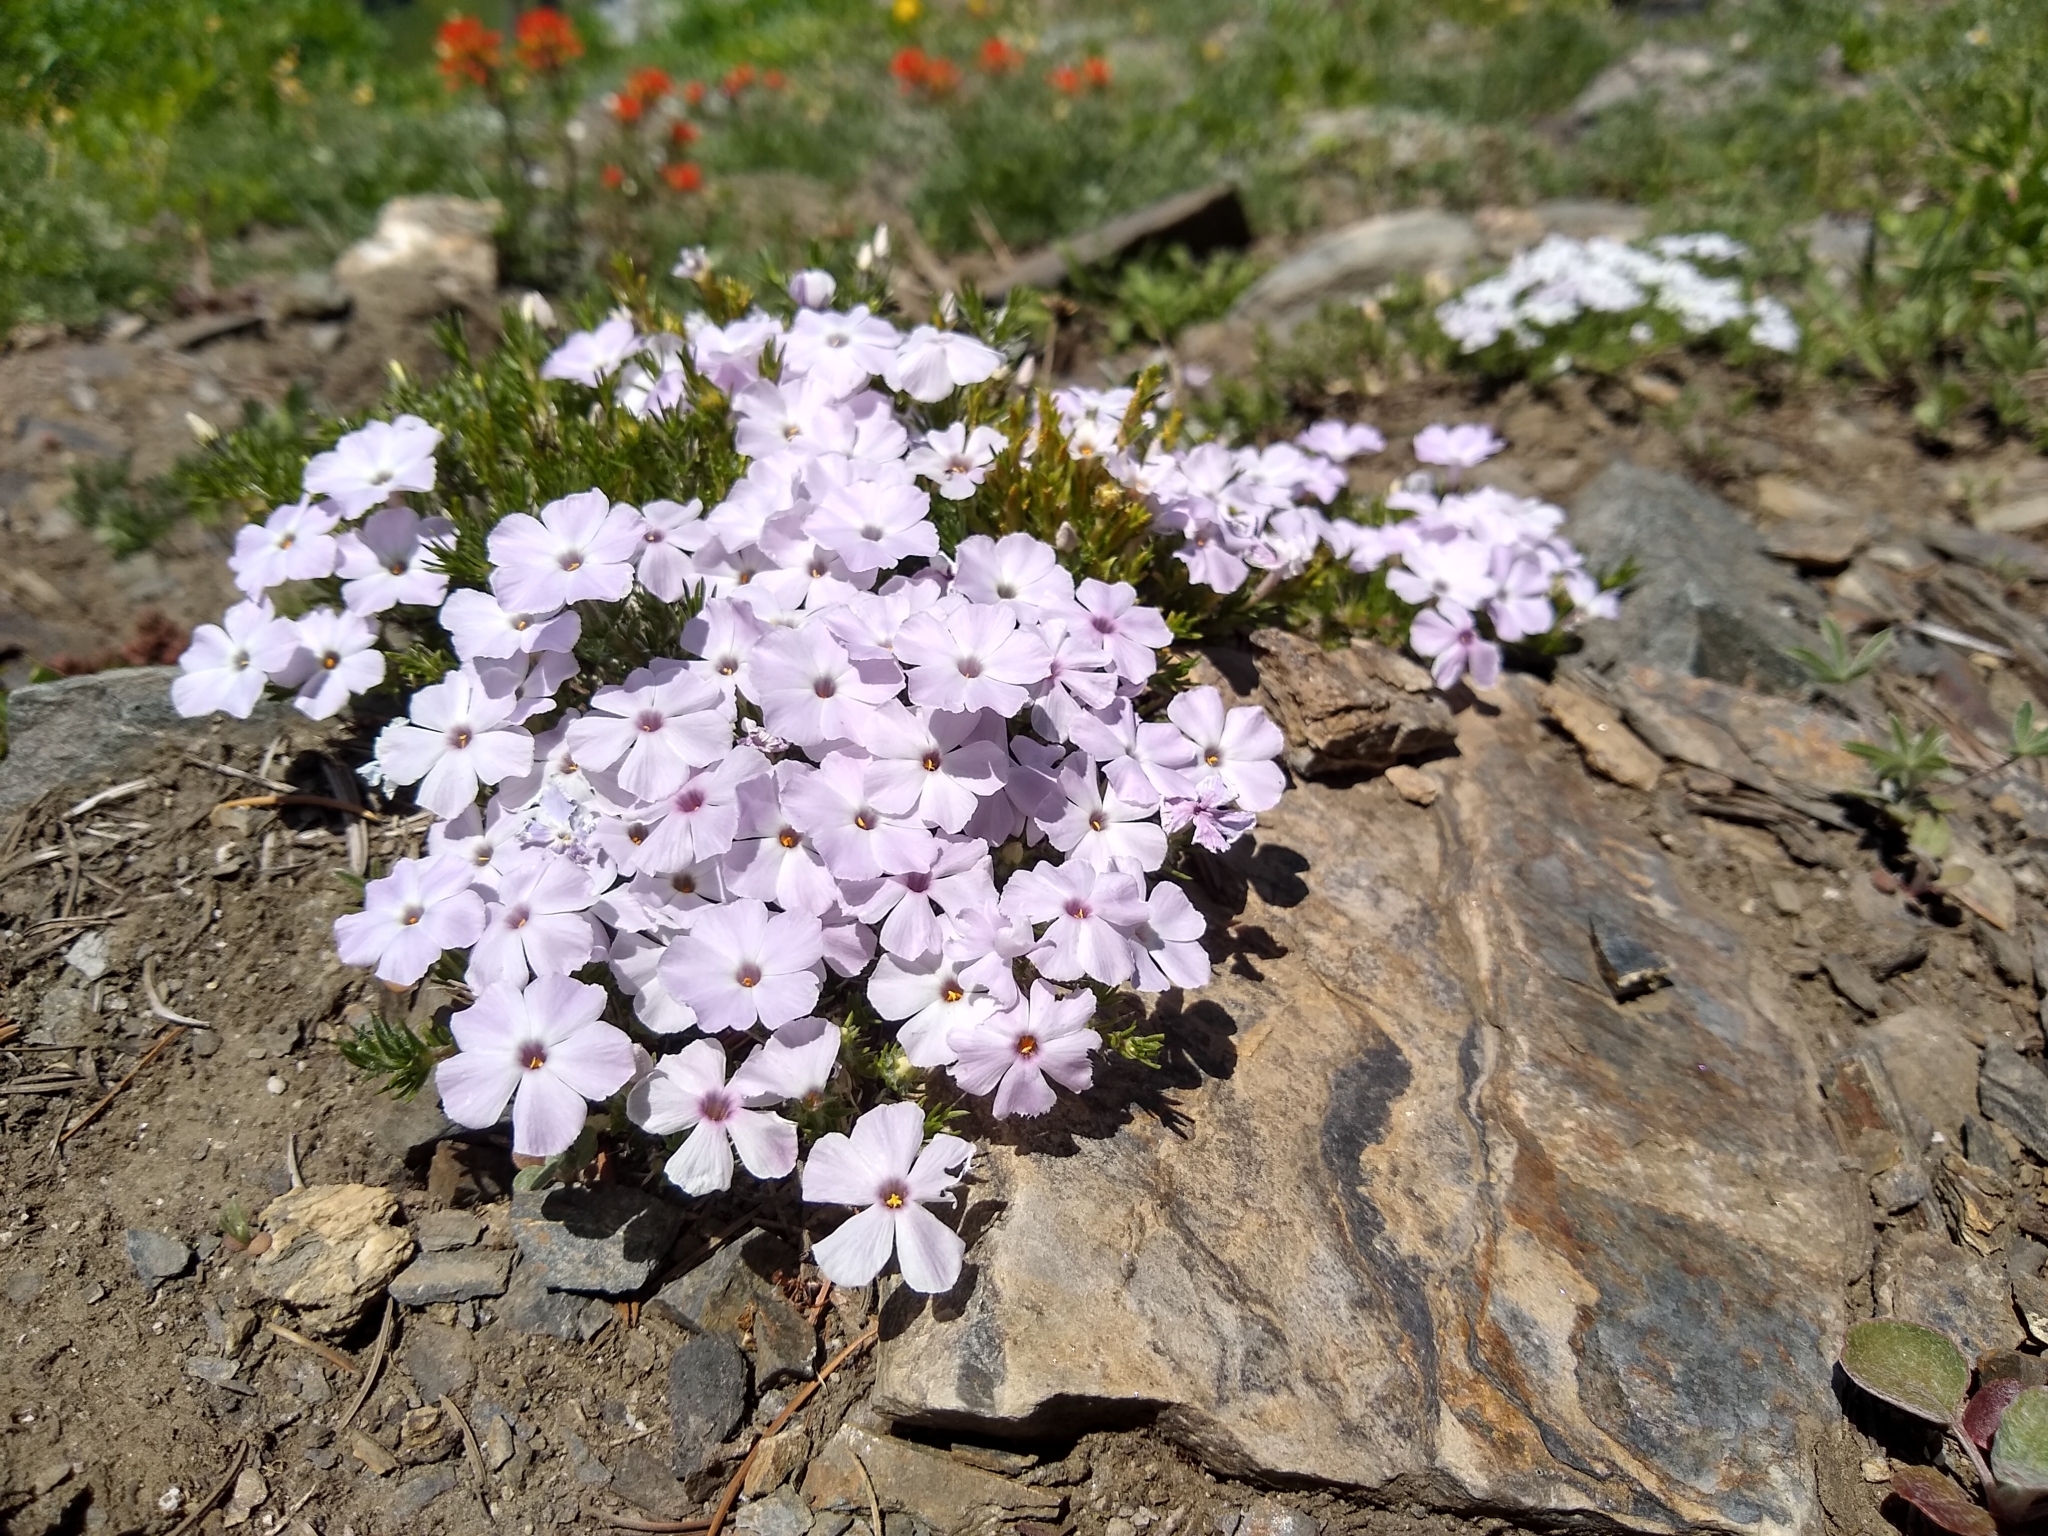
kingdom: Plantae
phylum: Tracheophyta
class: Magnoliopsida
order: Ericales
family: Polemoniaceae
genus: Phlox
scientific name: Phlox diffusa
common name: Mat phlox
